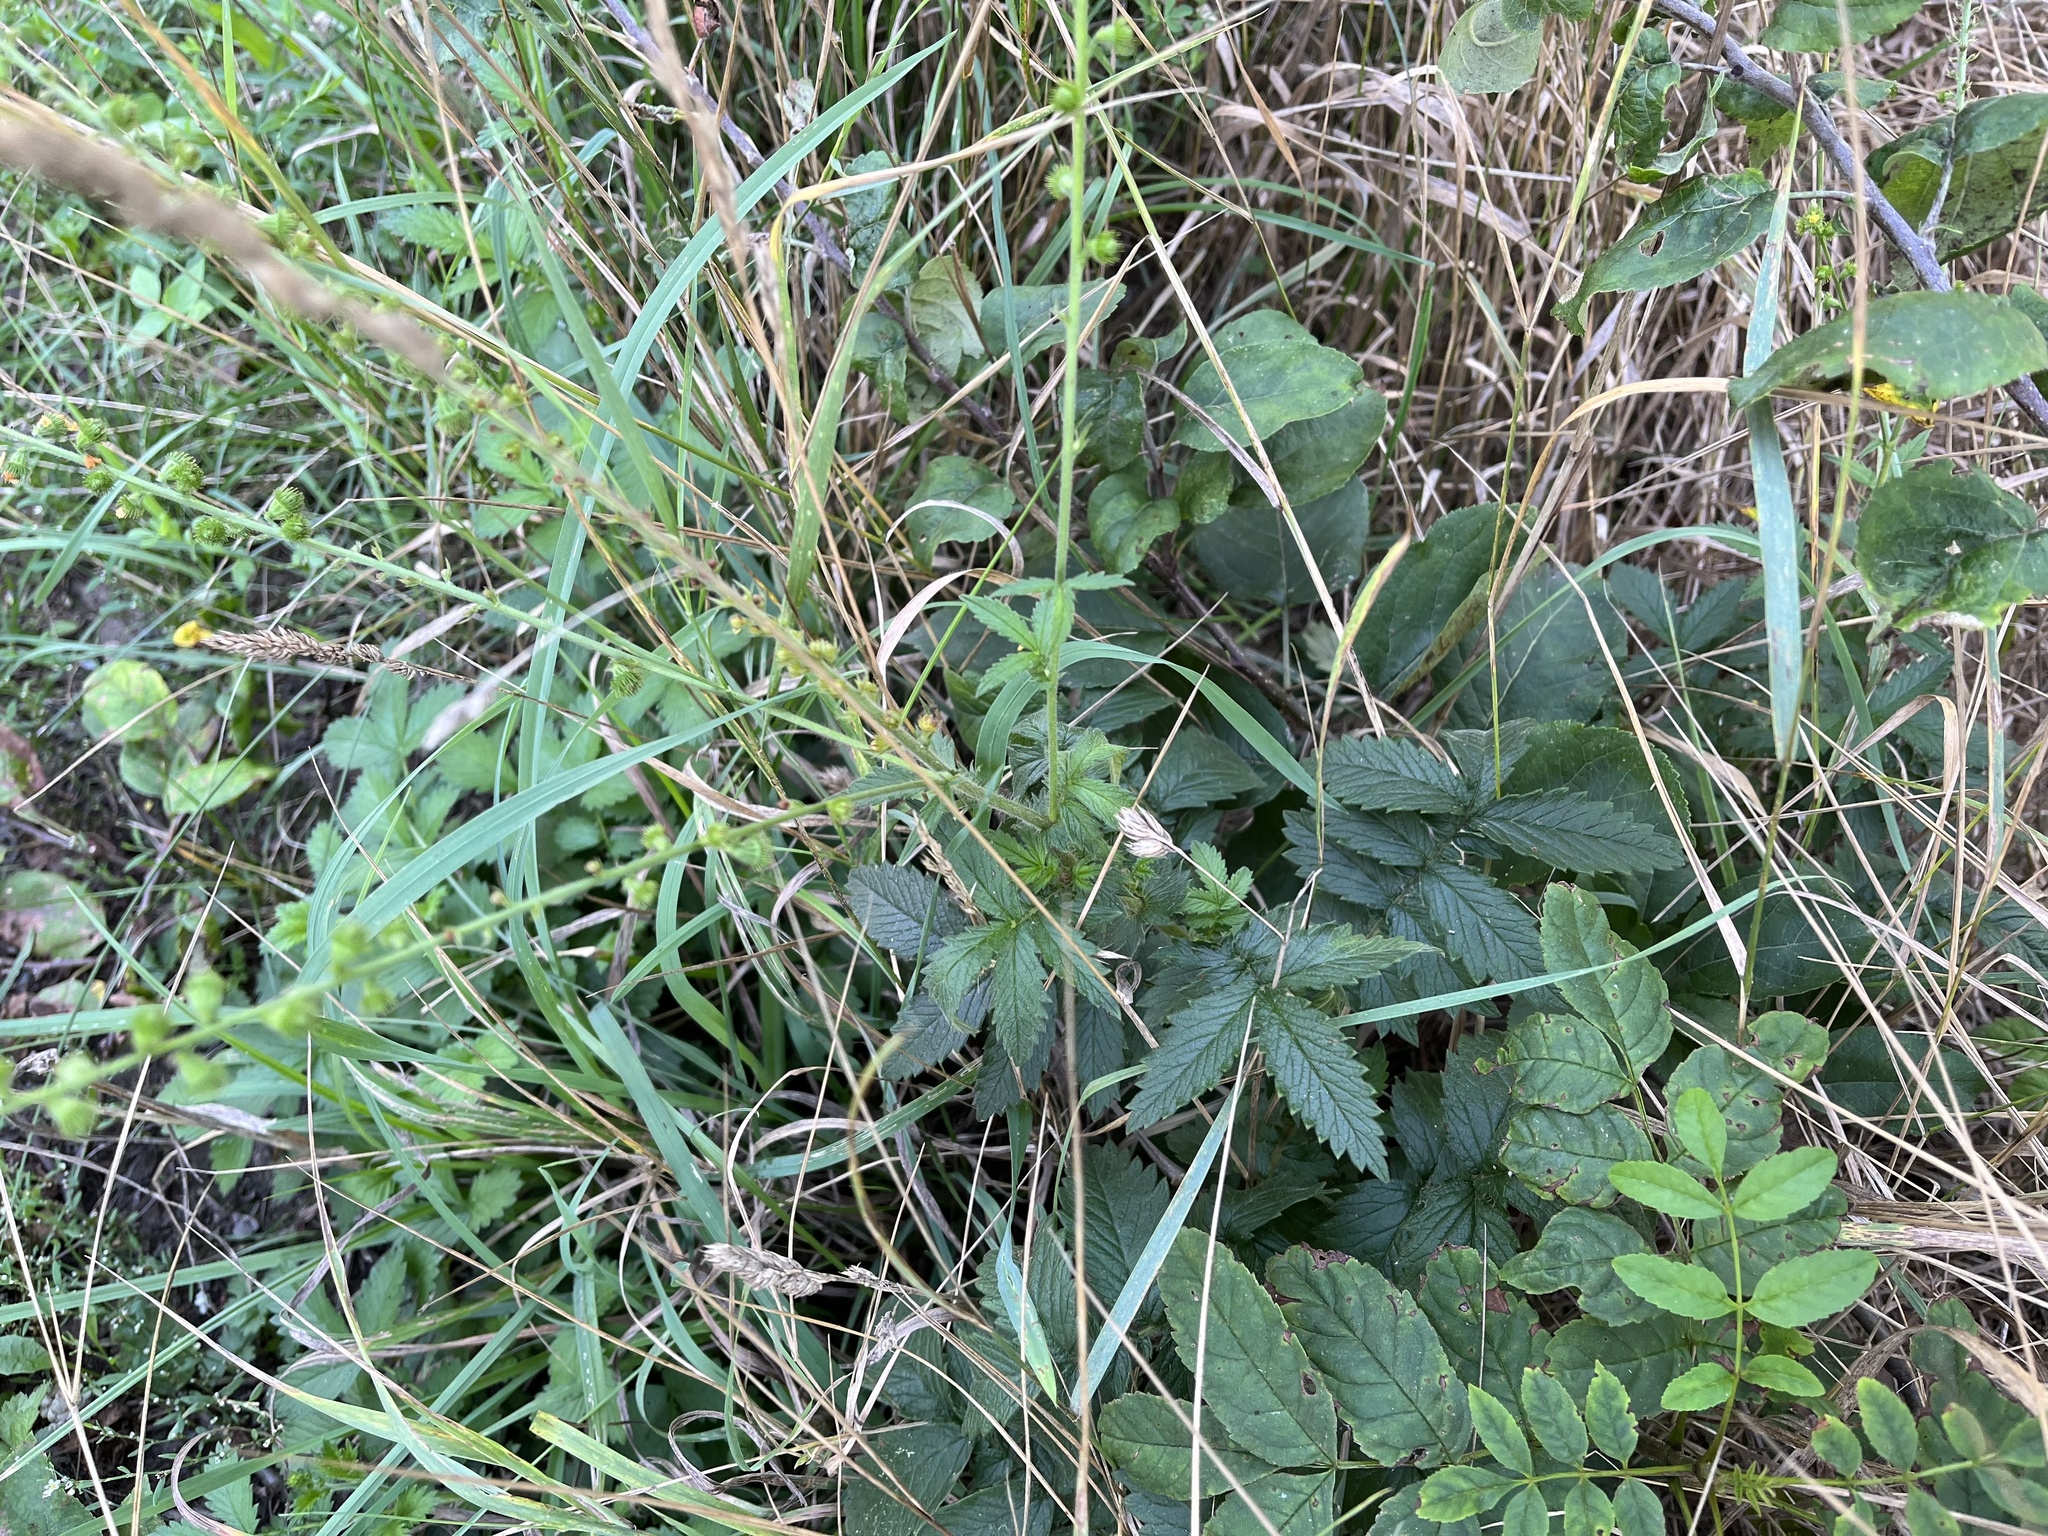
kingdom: Plantae
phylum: Tracheophyta
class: Magnoliopsida
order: Rosales
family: Rosaceae
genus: Agrimonia
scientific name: Agrimonia eupatoria
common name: Agrimony
